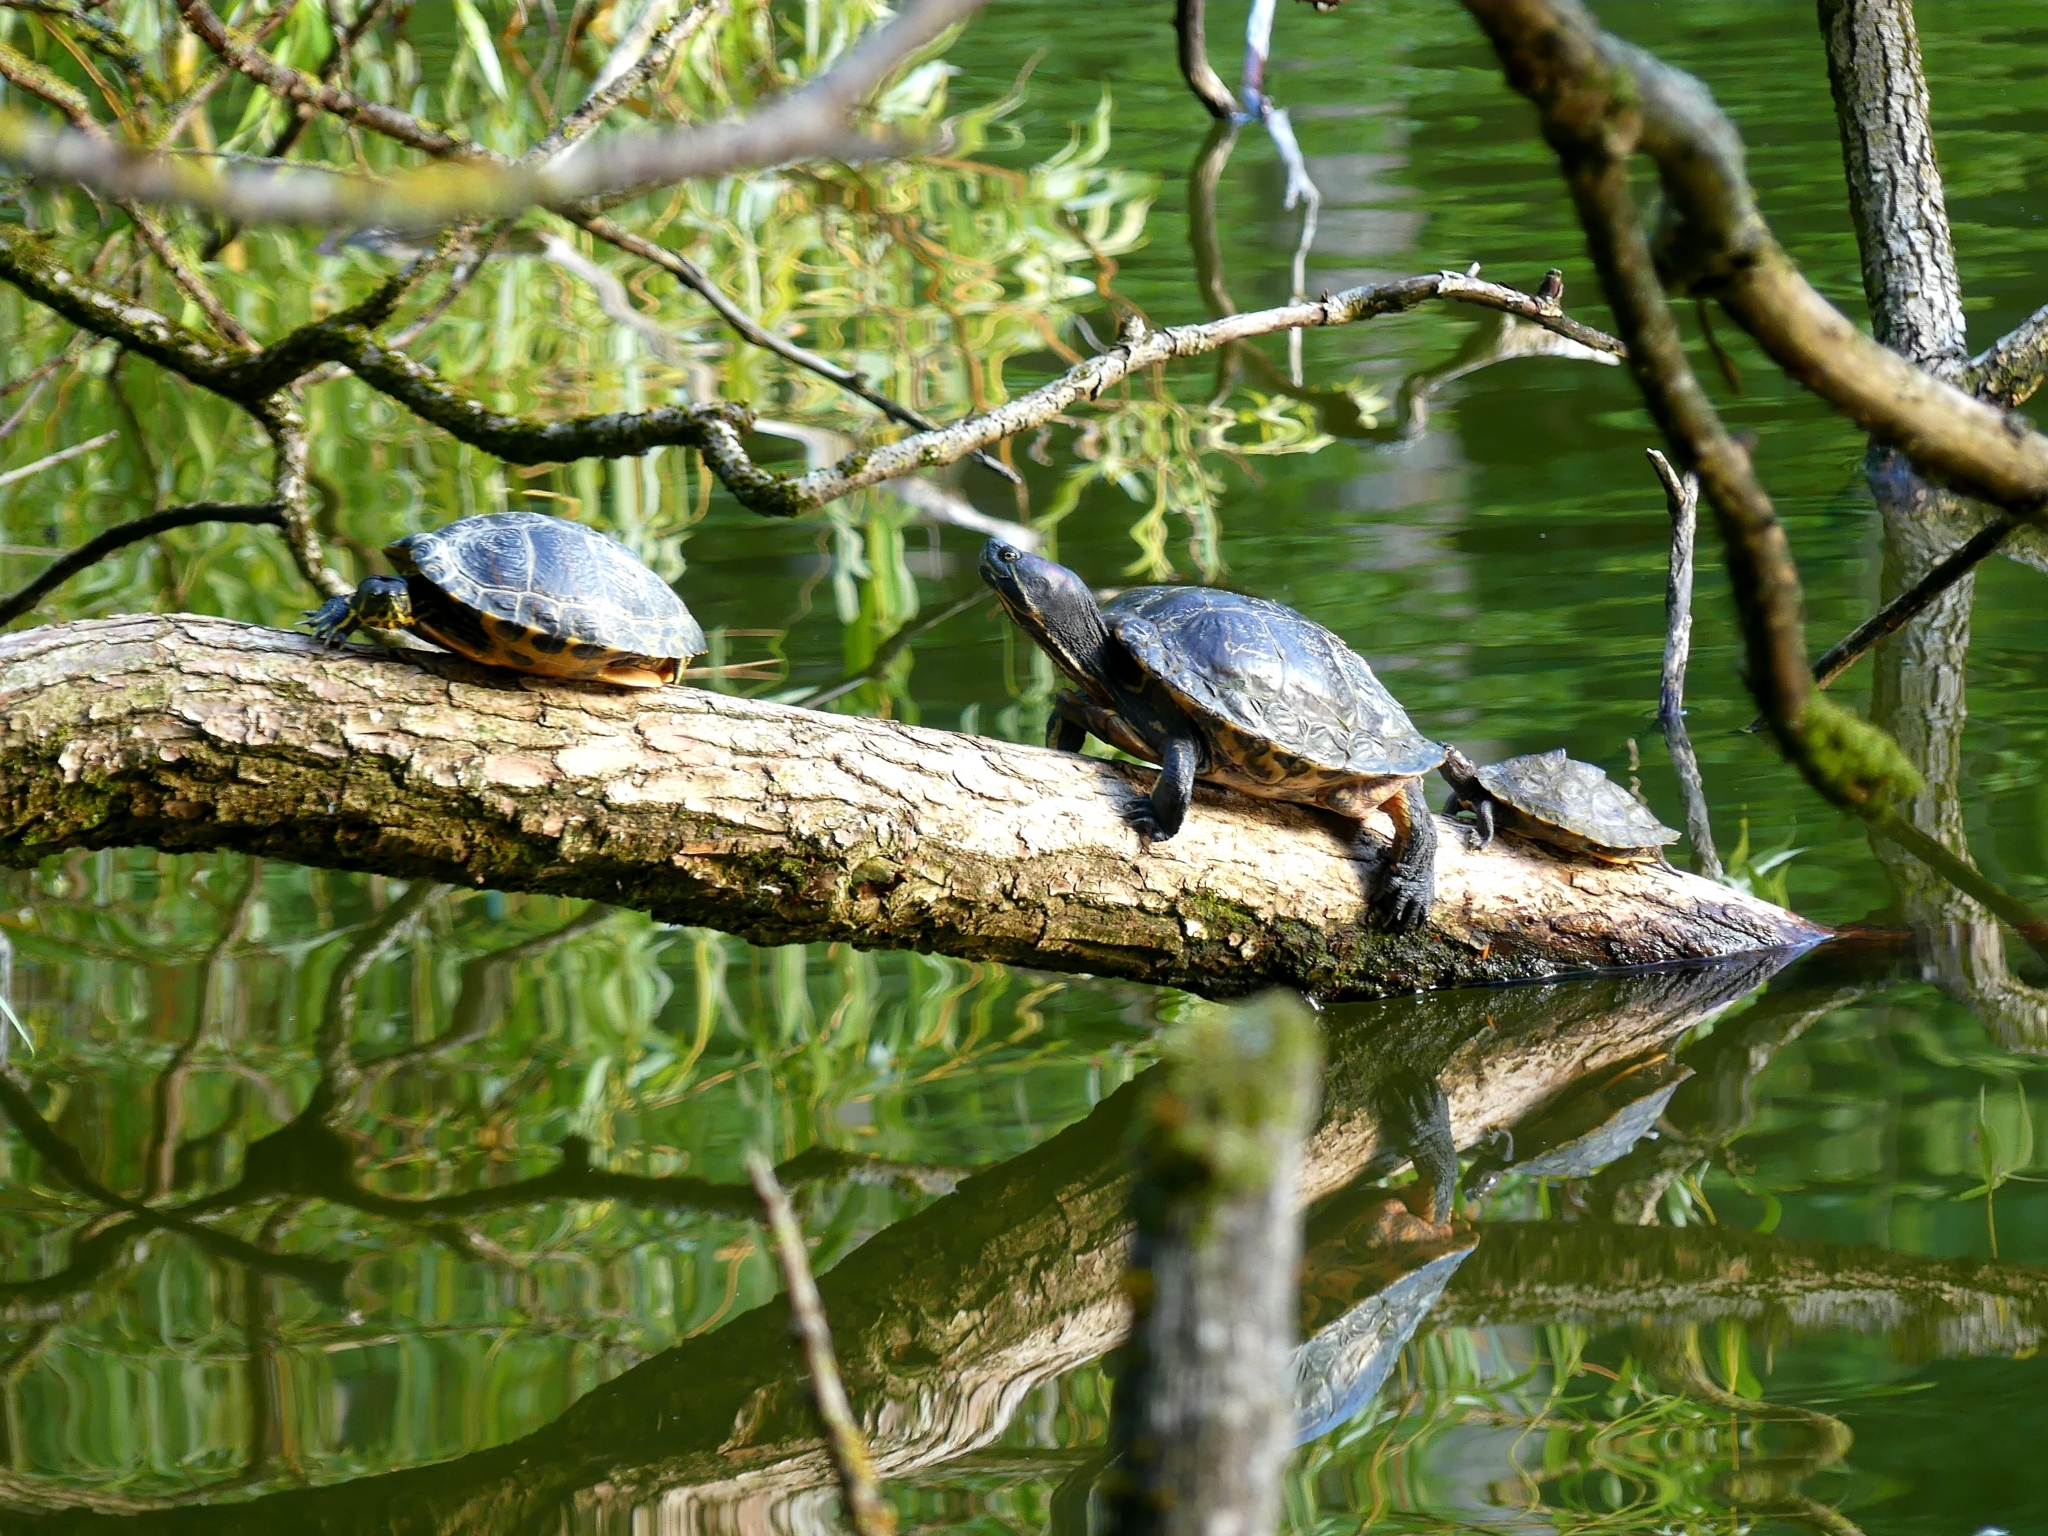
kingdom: Animalia
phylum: Chordata
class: Testudines
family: Emydidae
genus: Trachemys
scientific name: Trachemys scripta
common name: Slider
